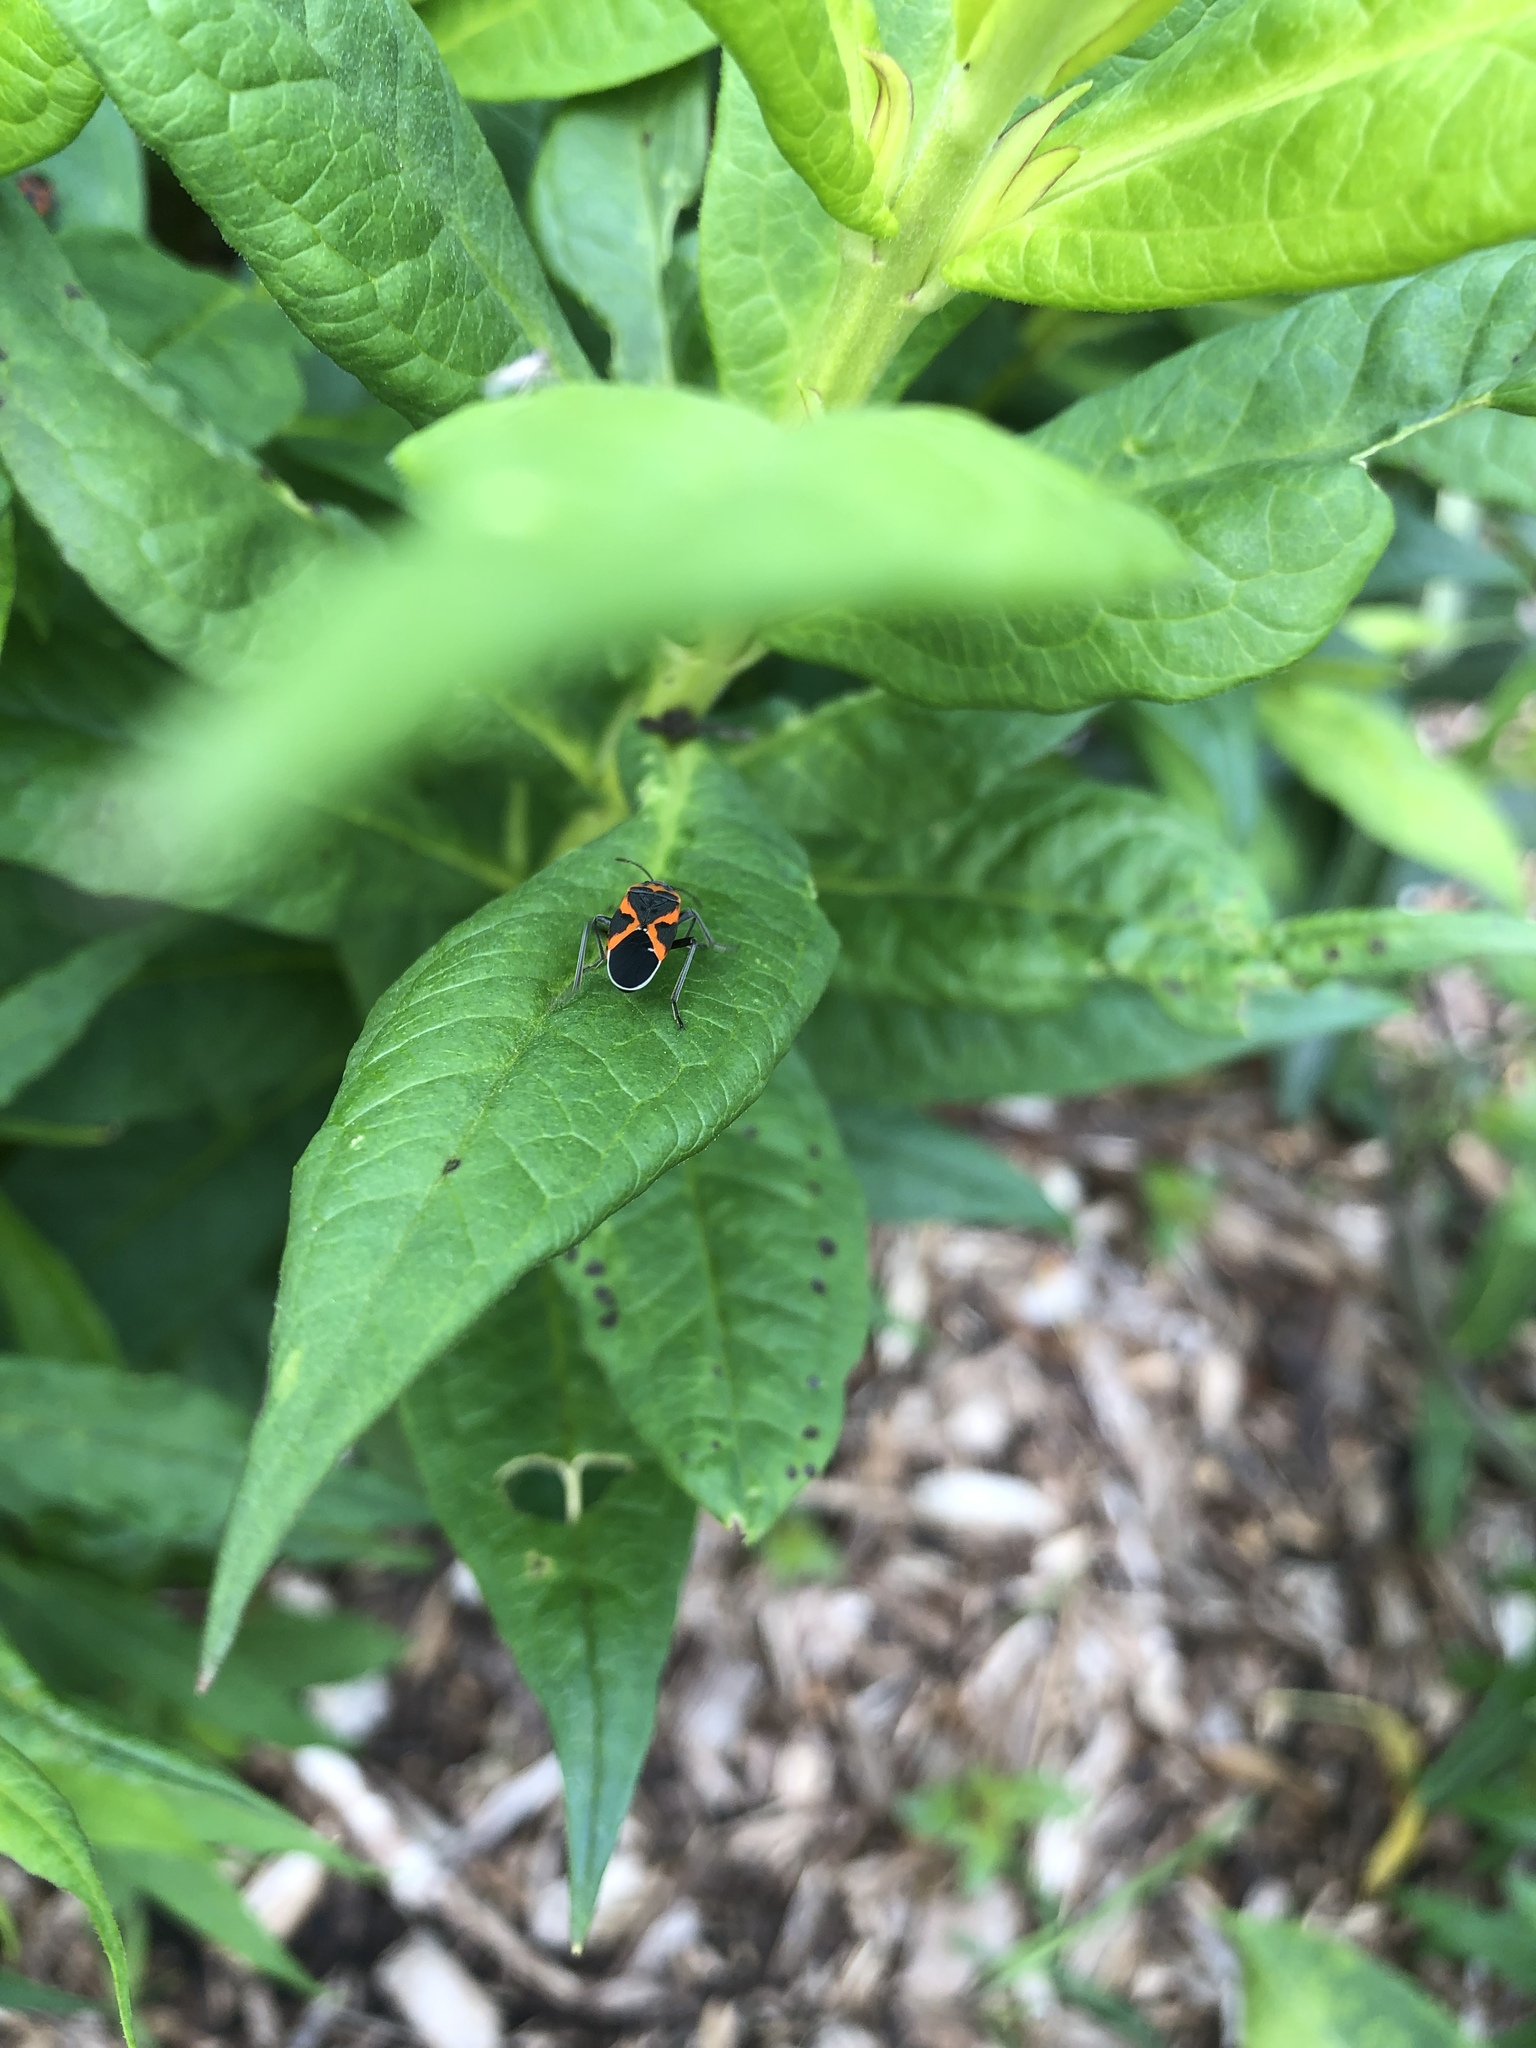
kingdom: Animalia
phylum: Arthropoda
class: Insecta
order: Hemiptera
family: Lygaeidae
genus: Lygaeus
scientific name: Lygaeus kalmii
